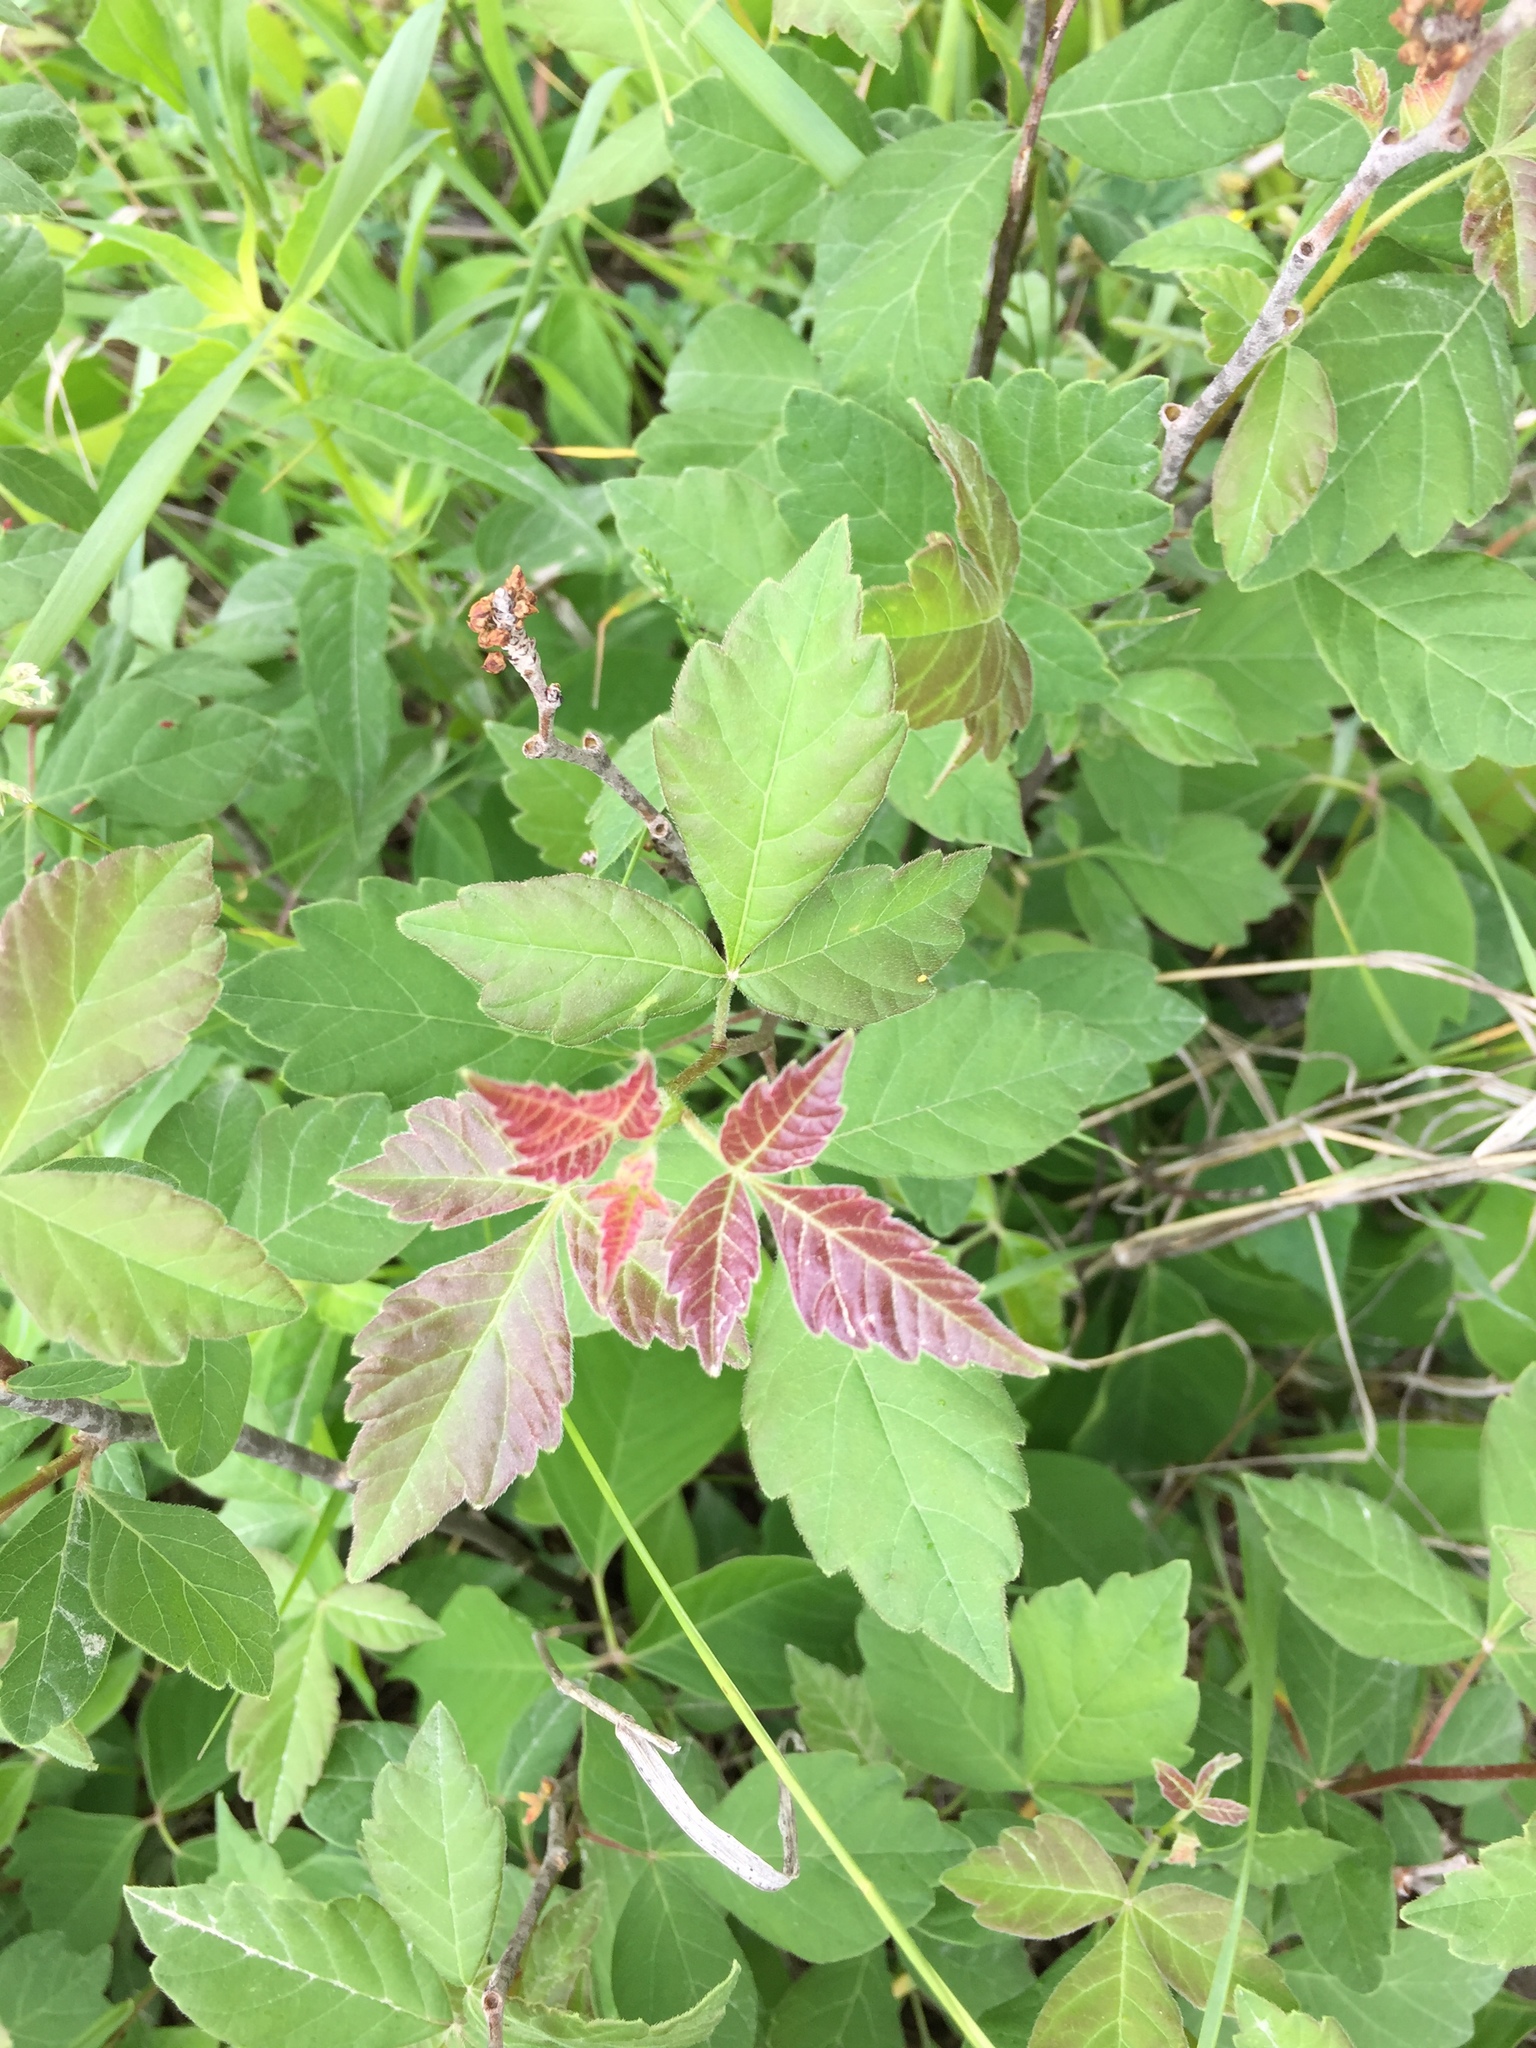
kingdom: Plantae
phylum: Tracheophyta
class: Magnoliopsida
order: Sapindales
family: Anacardiaceae
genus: Rhus
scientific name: Rhus aromatica
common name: Aromatic sumac
